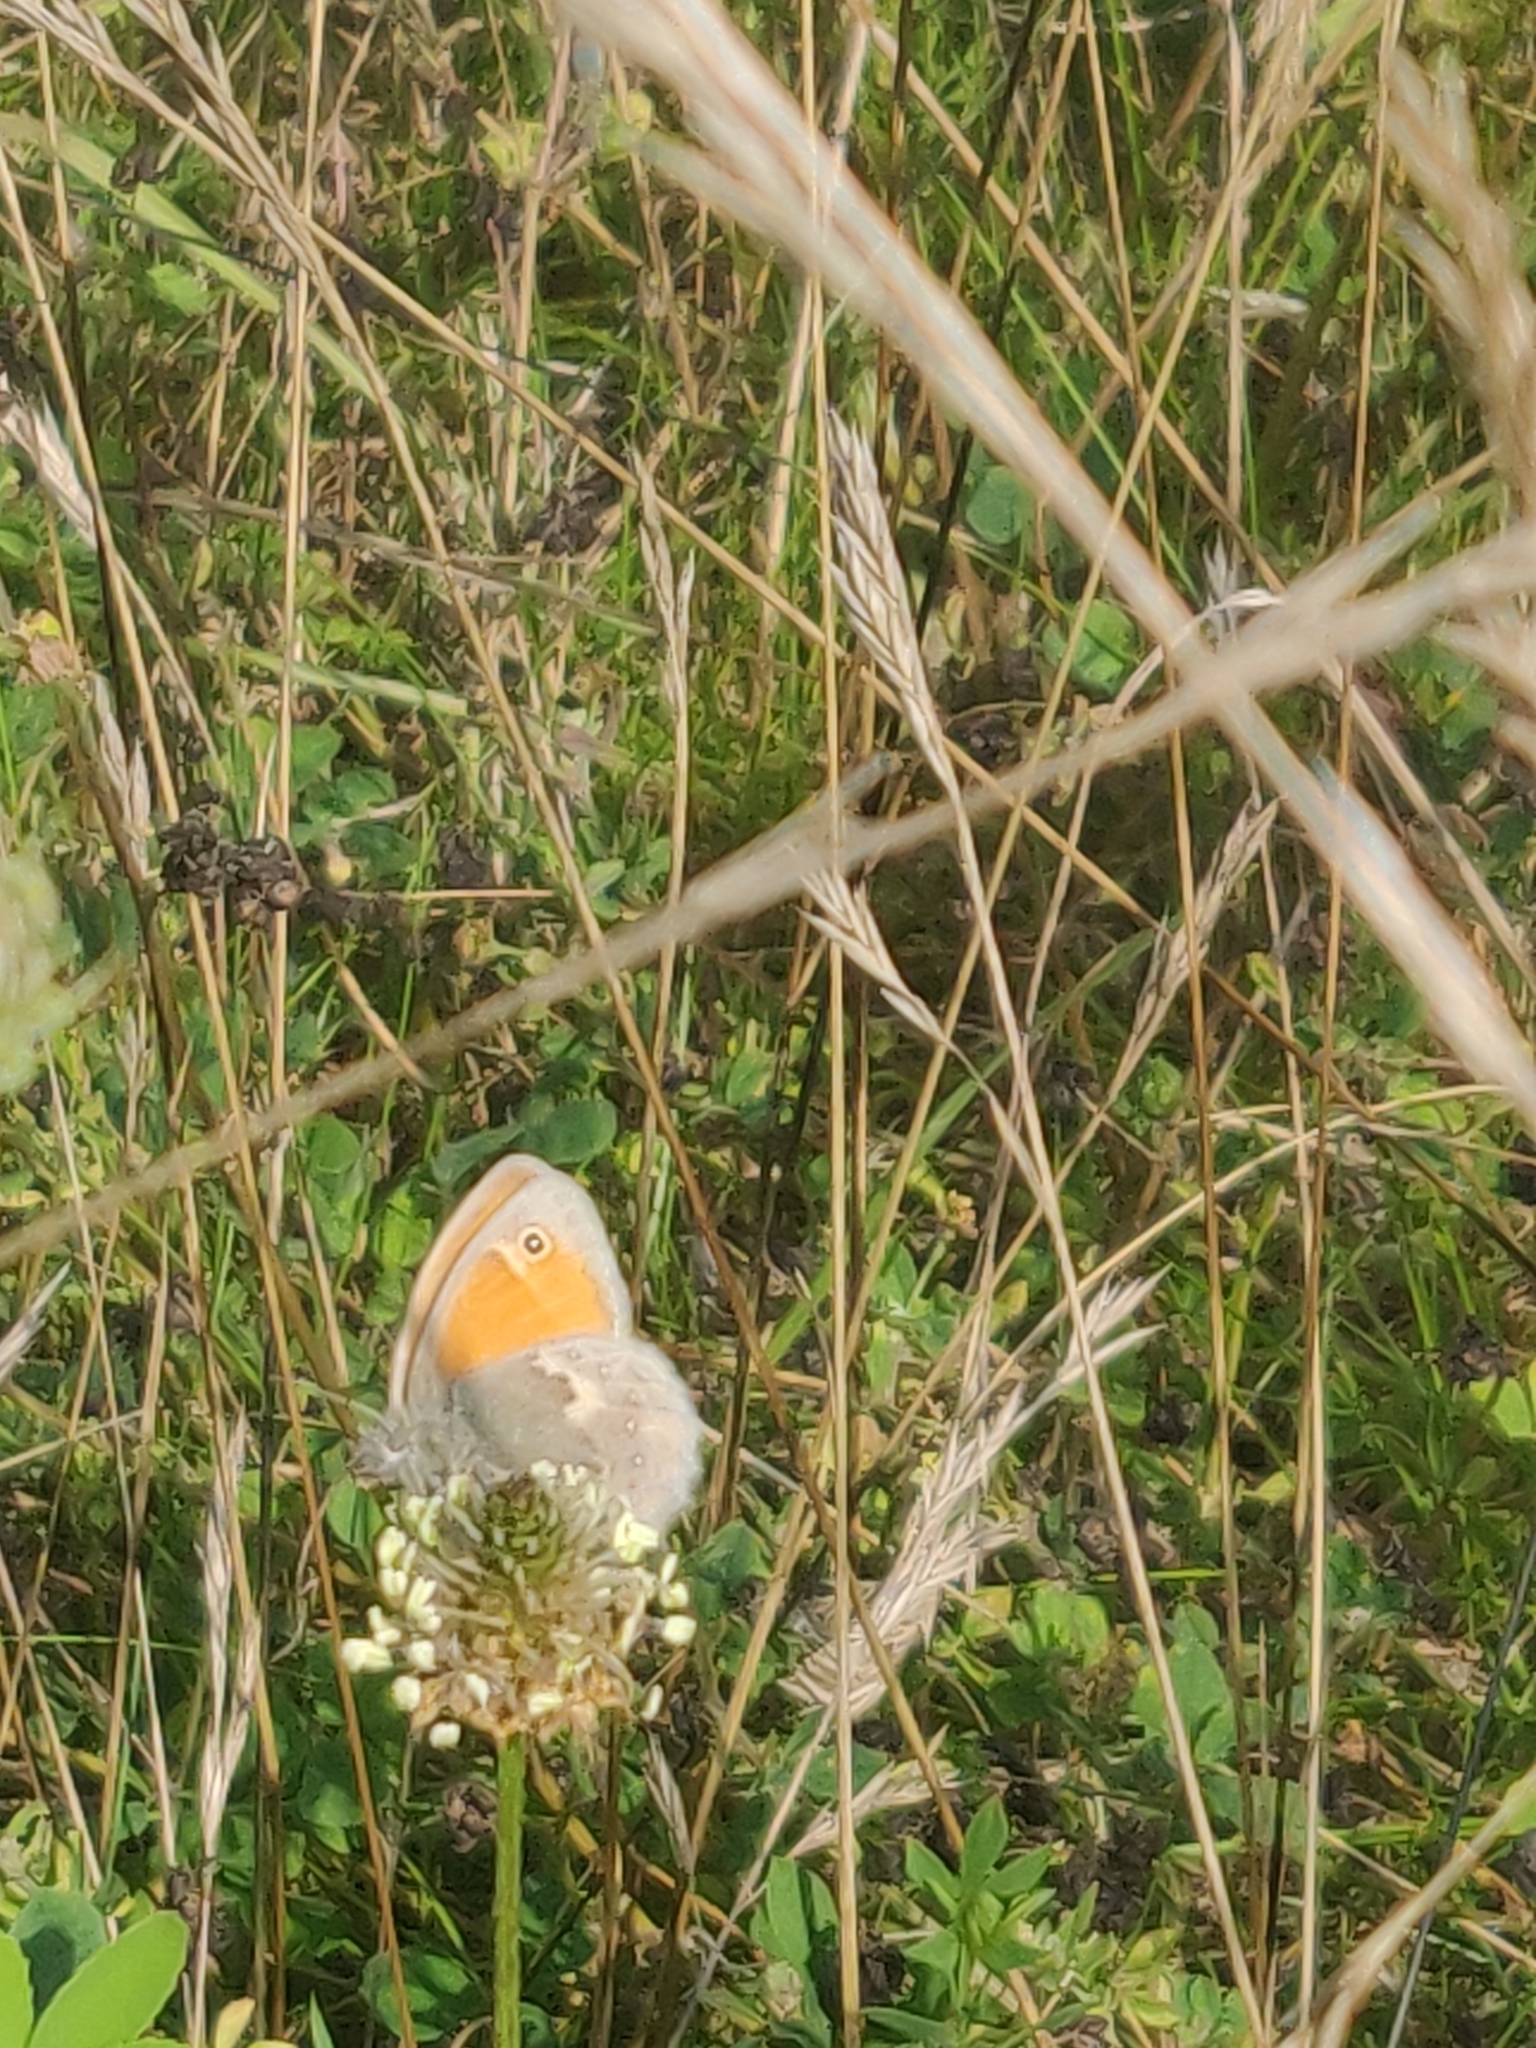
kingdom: Animalia
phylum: Arthropoda
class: Insecta
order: Lepidoptera
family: Nymphalidae
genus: Coenonympha
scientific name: Coenonympha pamphilus
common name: Small heath
